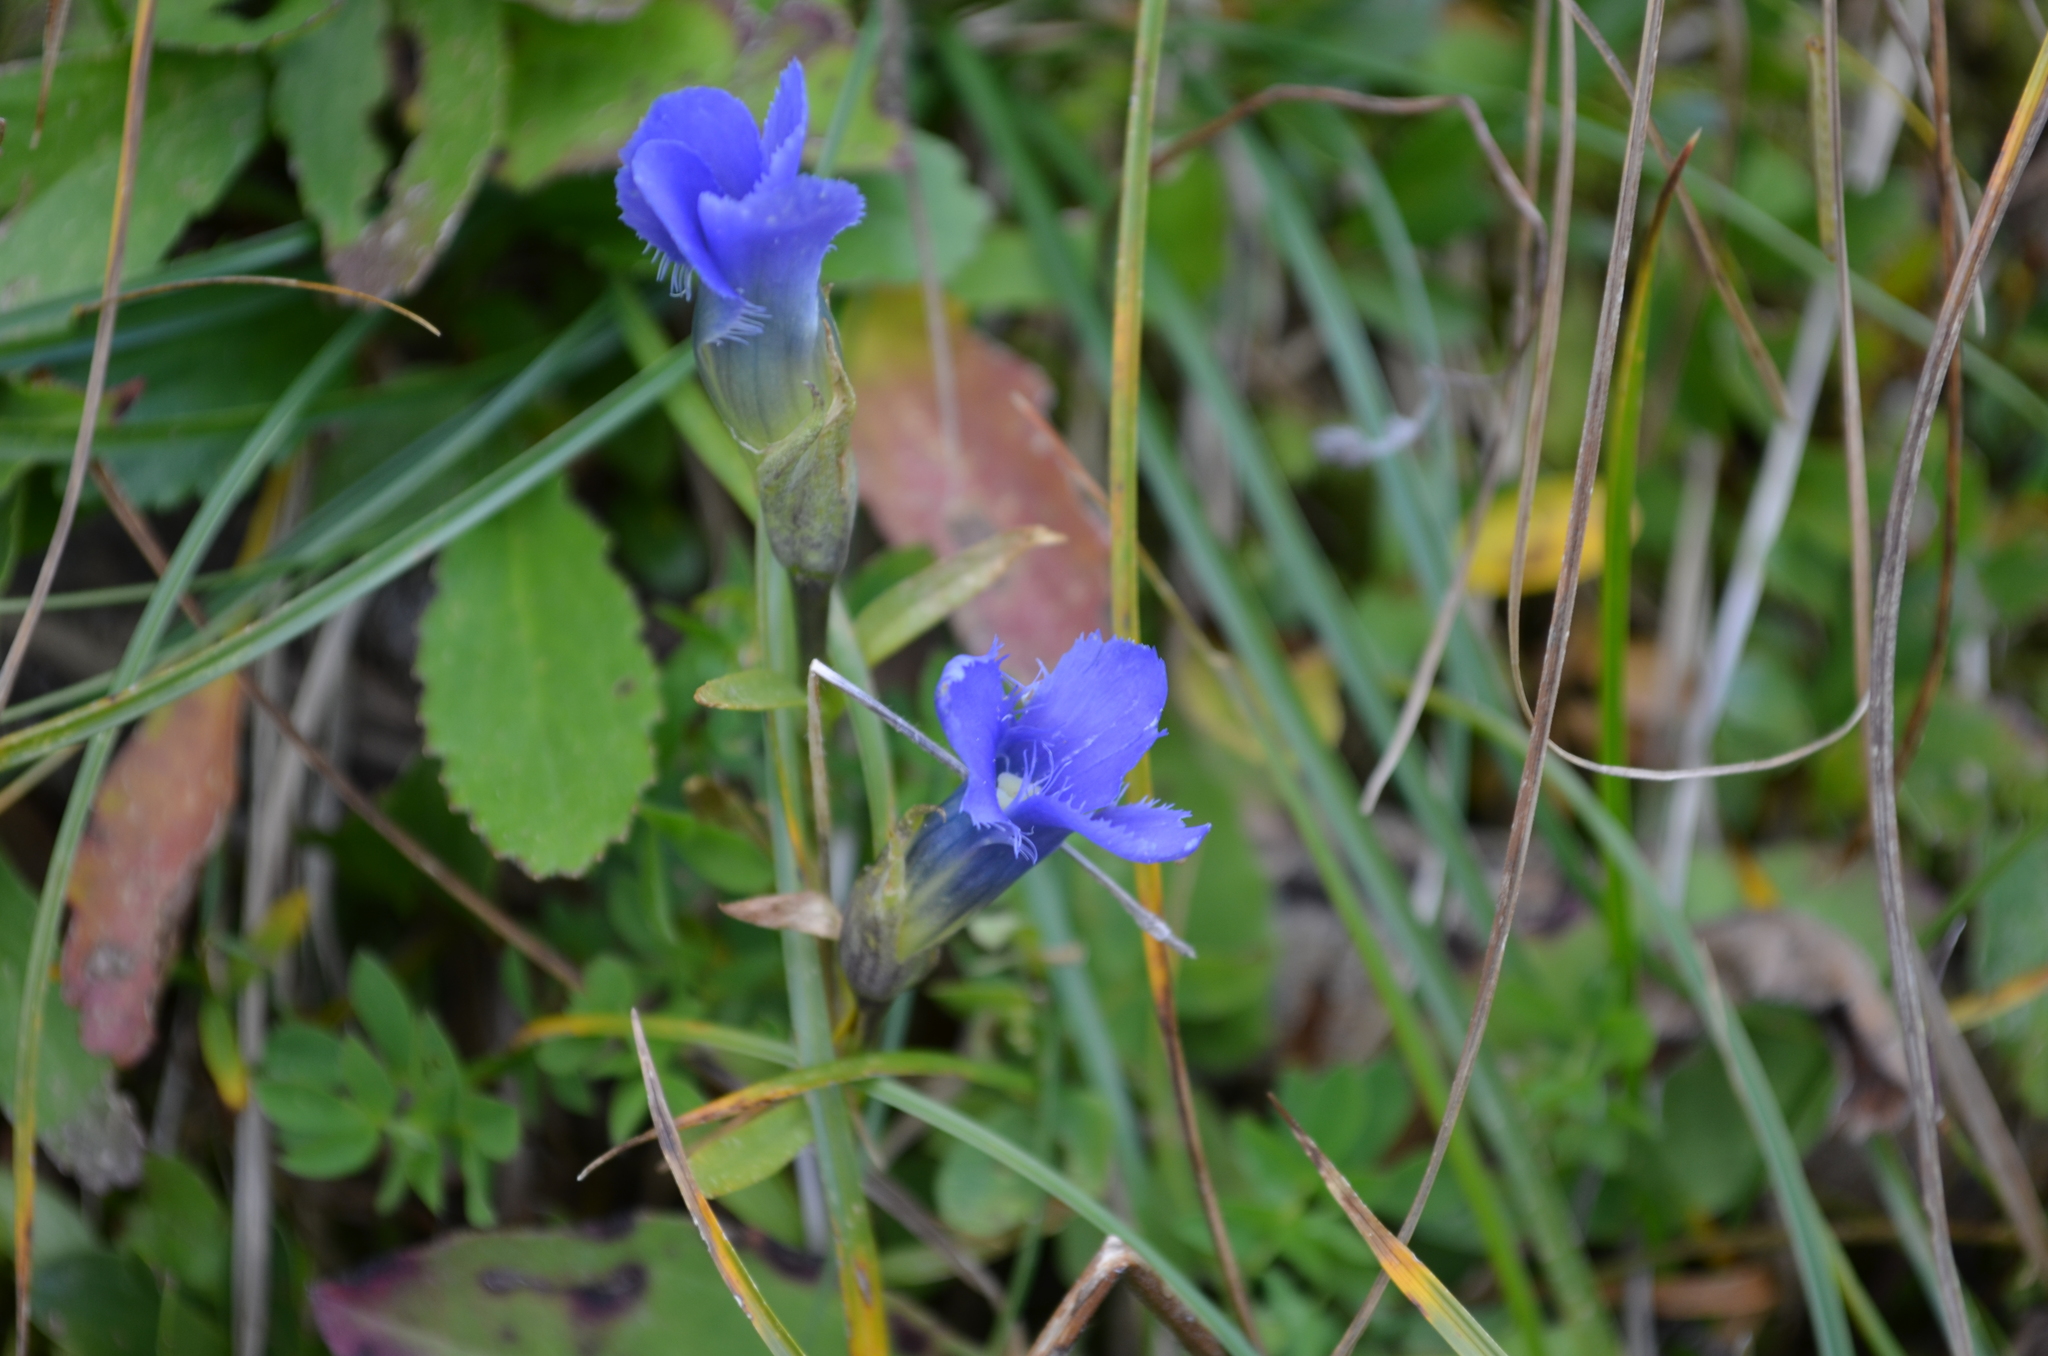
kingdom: Plantae
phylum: Tracheophyta
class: Magnoliopsida
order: Gentianales
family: Gentianaceae
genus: Gentianopsis
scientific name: Gentianopsis ciliata
